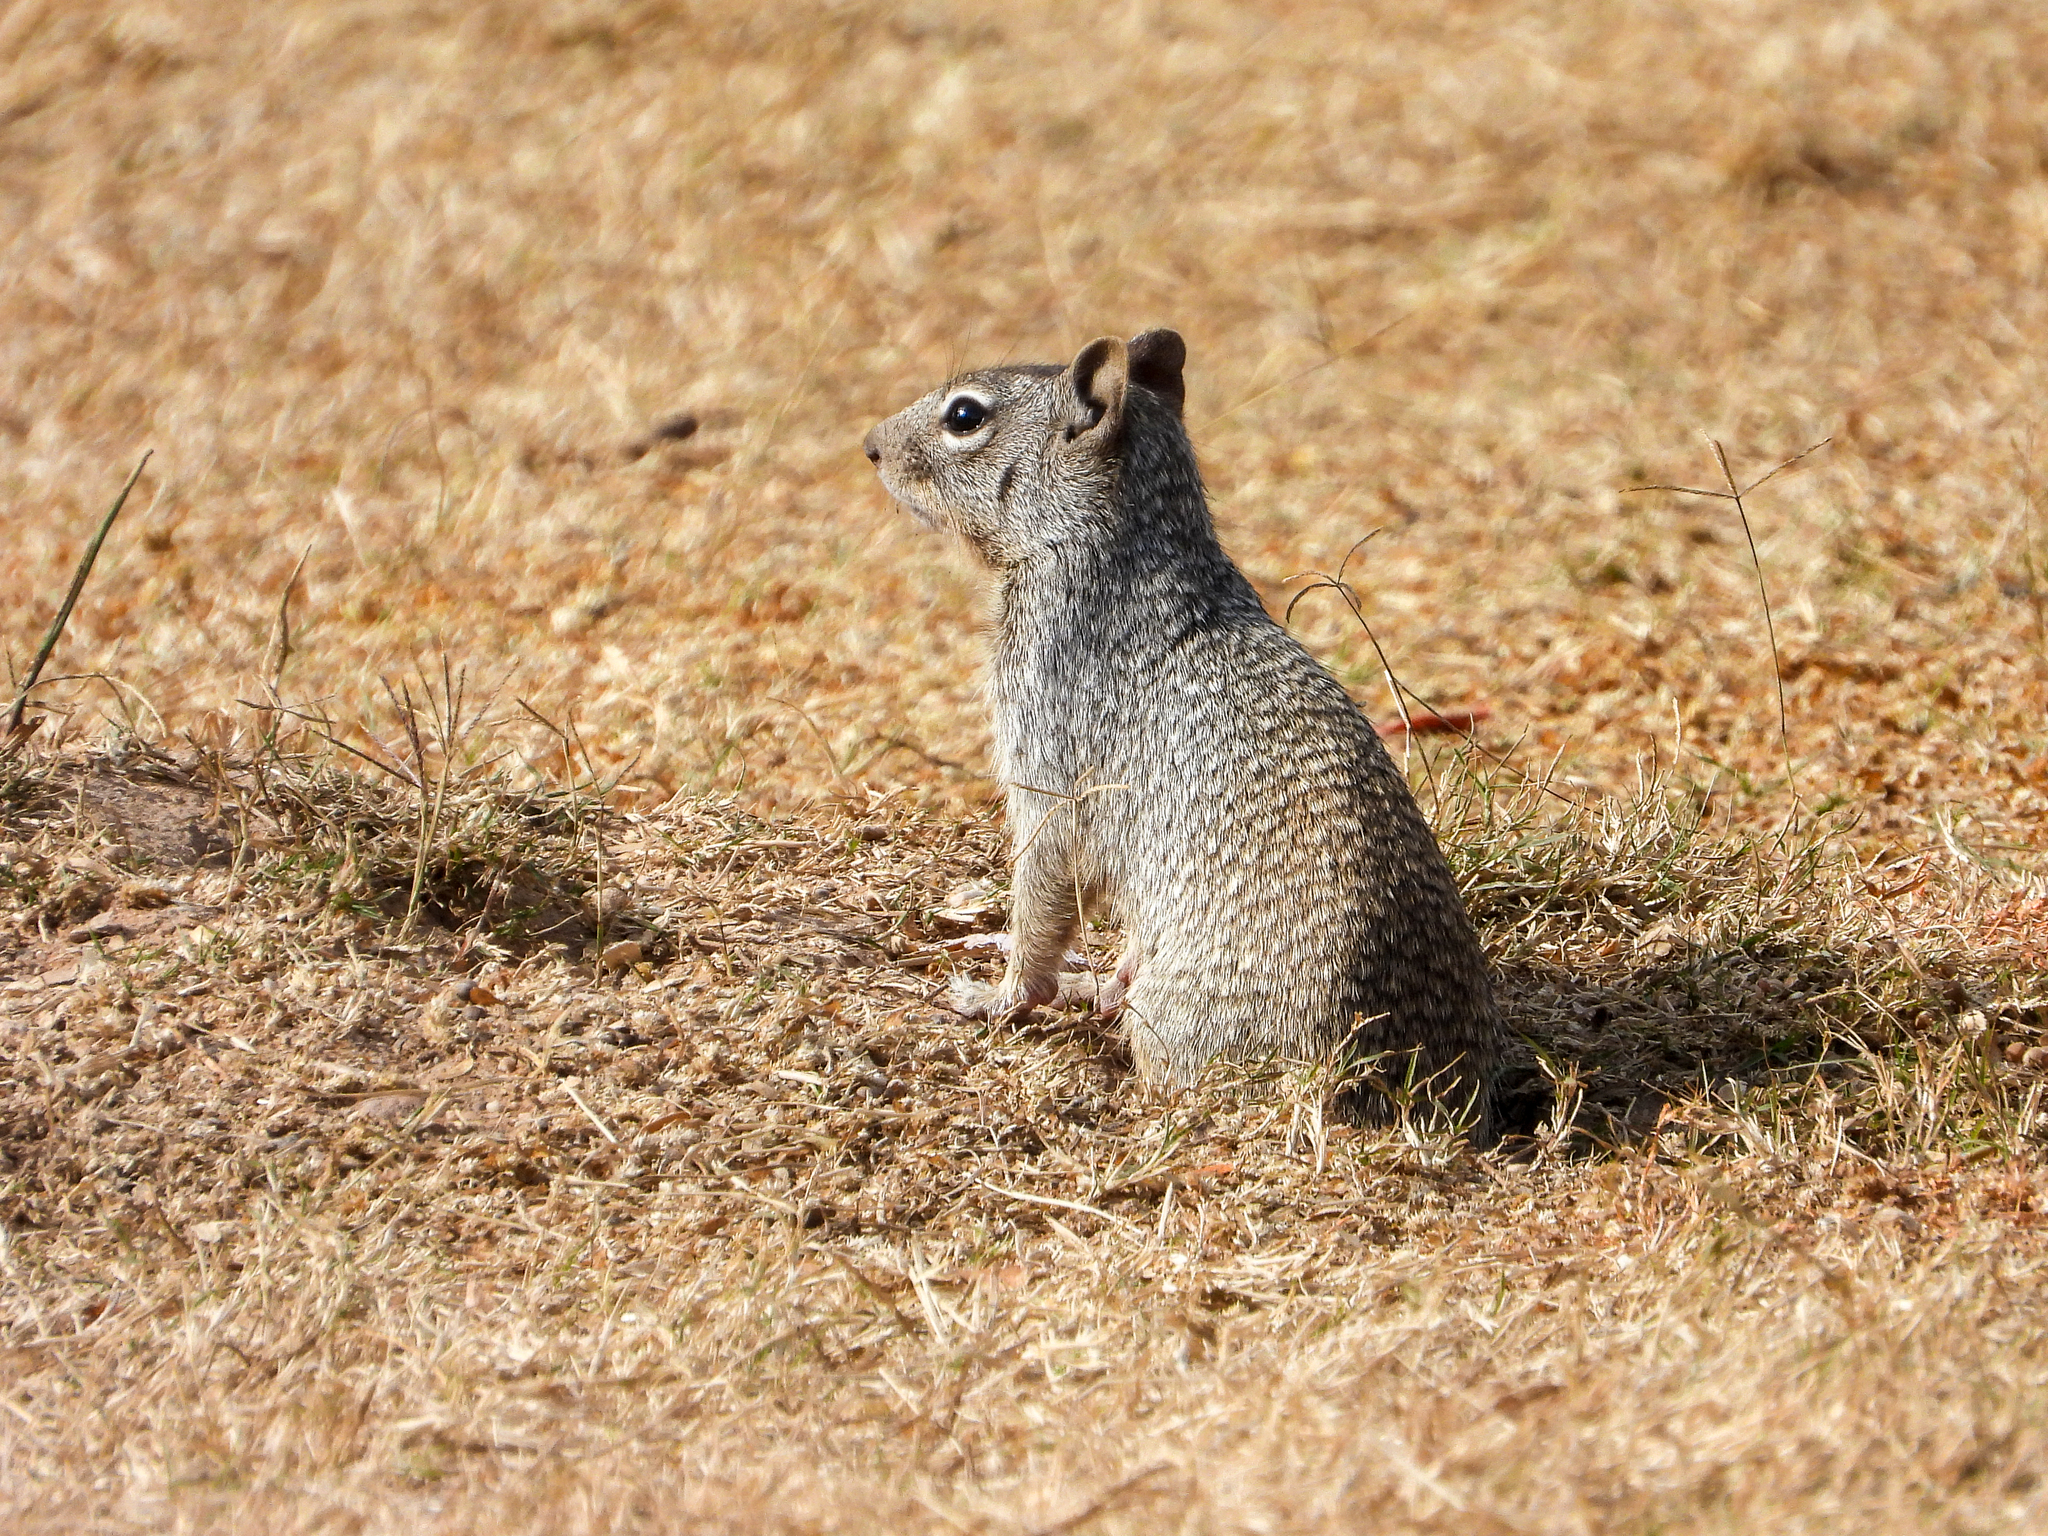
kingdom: Animalia
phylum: Chordata
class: Mammalia
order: Rodentia
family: Sciuridae
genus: Otospermophilus
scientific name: Otospermophilus variegatus
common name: Rock squirrel
